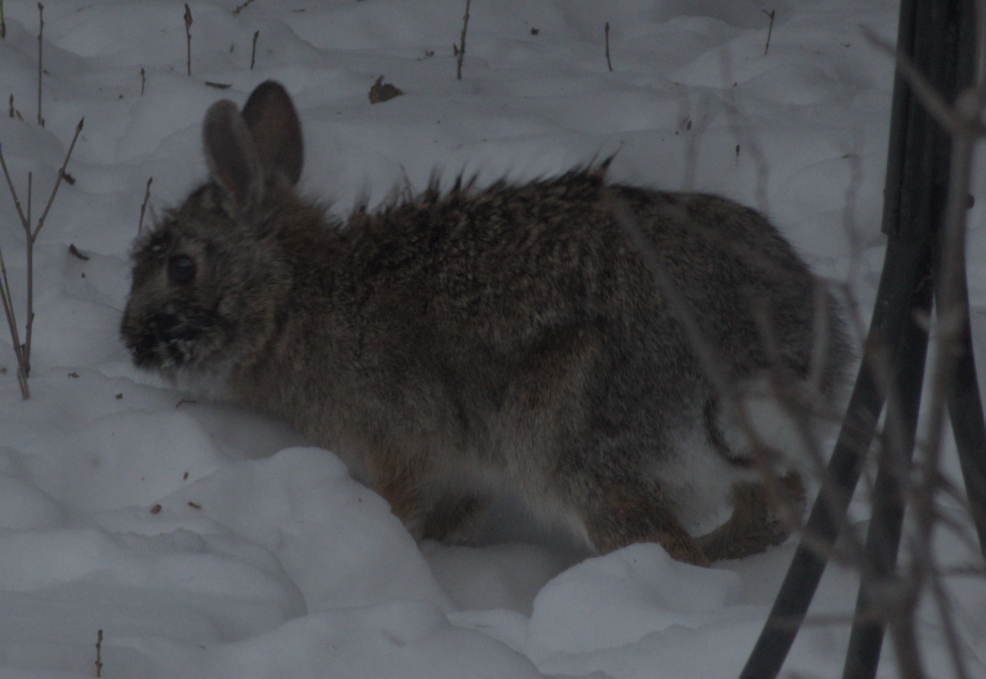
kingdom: Animalia
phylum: Chordata
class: Mammalia
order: Lagomorpha
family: Leporidae
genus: Sylvilagus
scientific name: Sylvilagus floridanus
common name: Eastern cottontail
